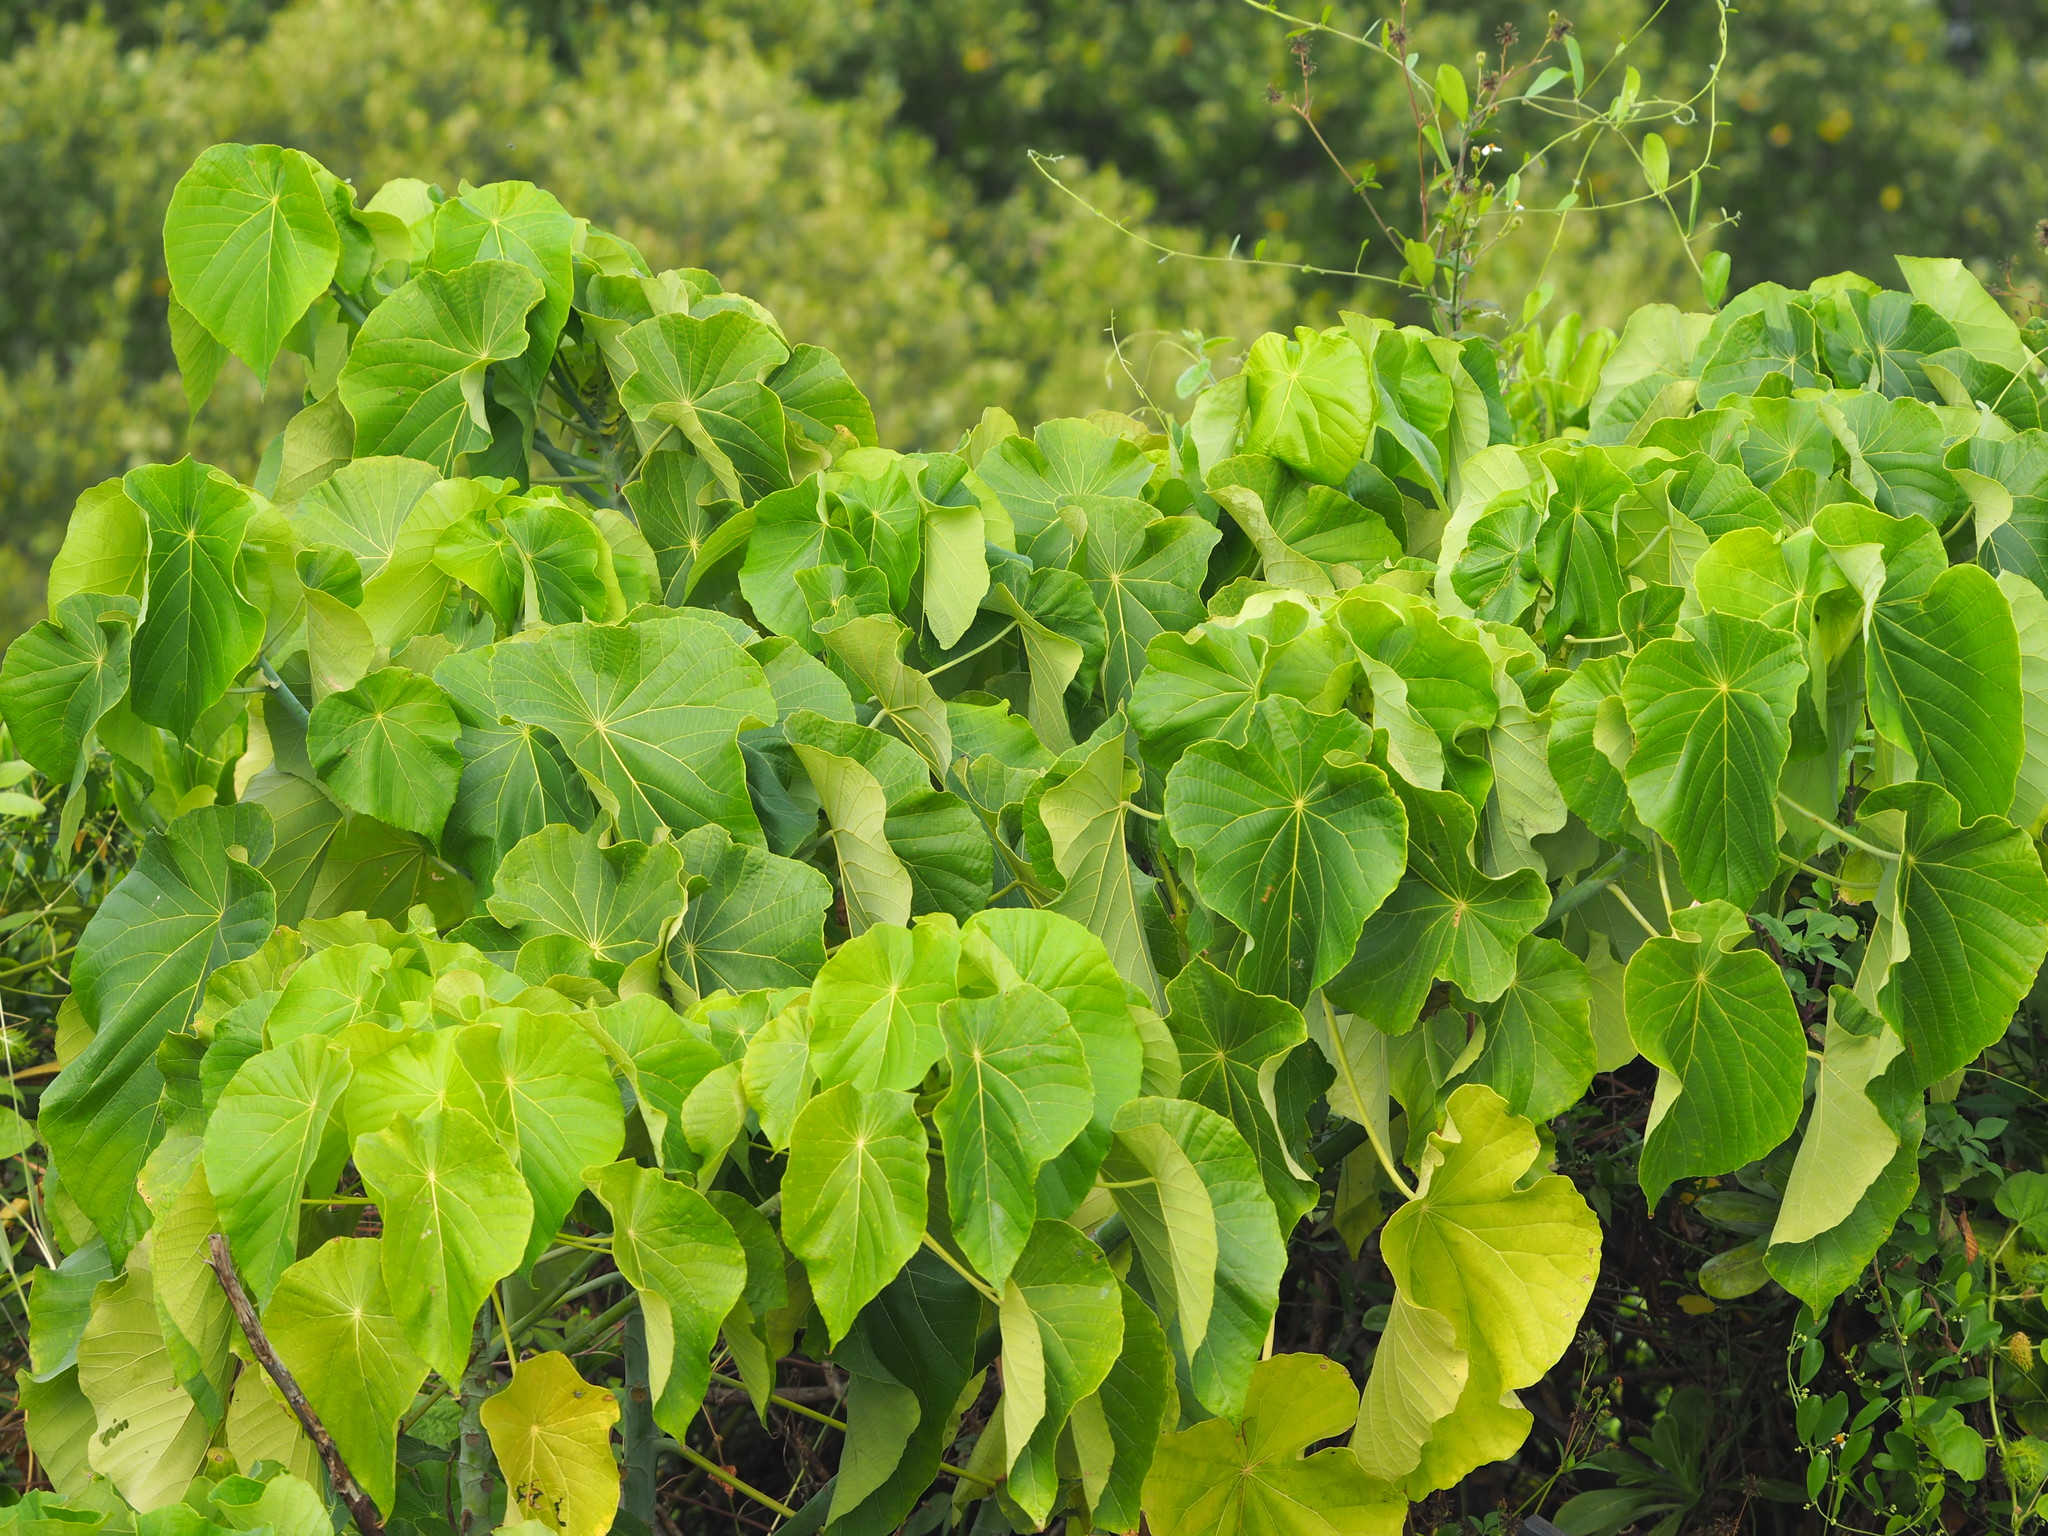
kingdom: Plantae
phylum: Tracheophyta
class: Magnoliopsida
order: Malpighiales
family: Euphorbiaceae
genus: Macaranga
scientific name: Macaranga tanarius
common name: Parasol leaf tree
